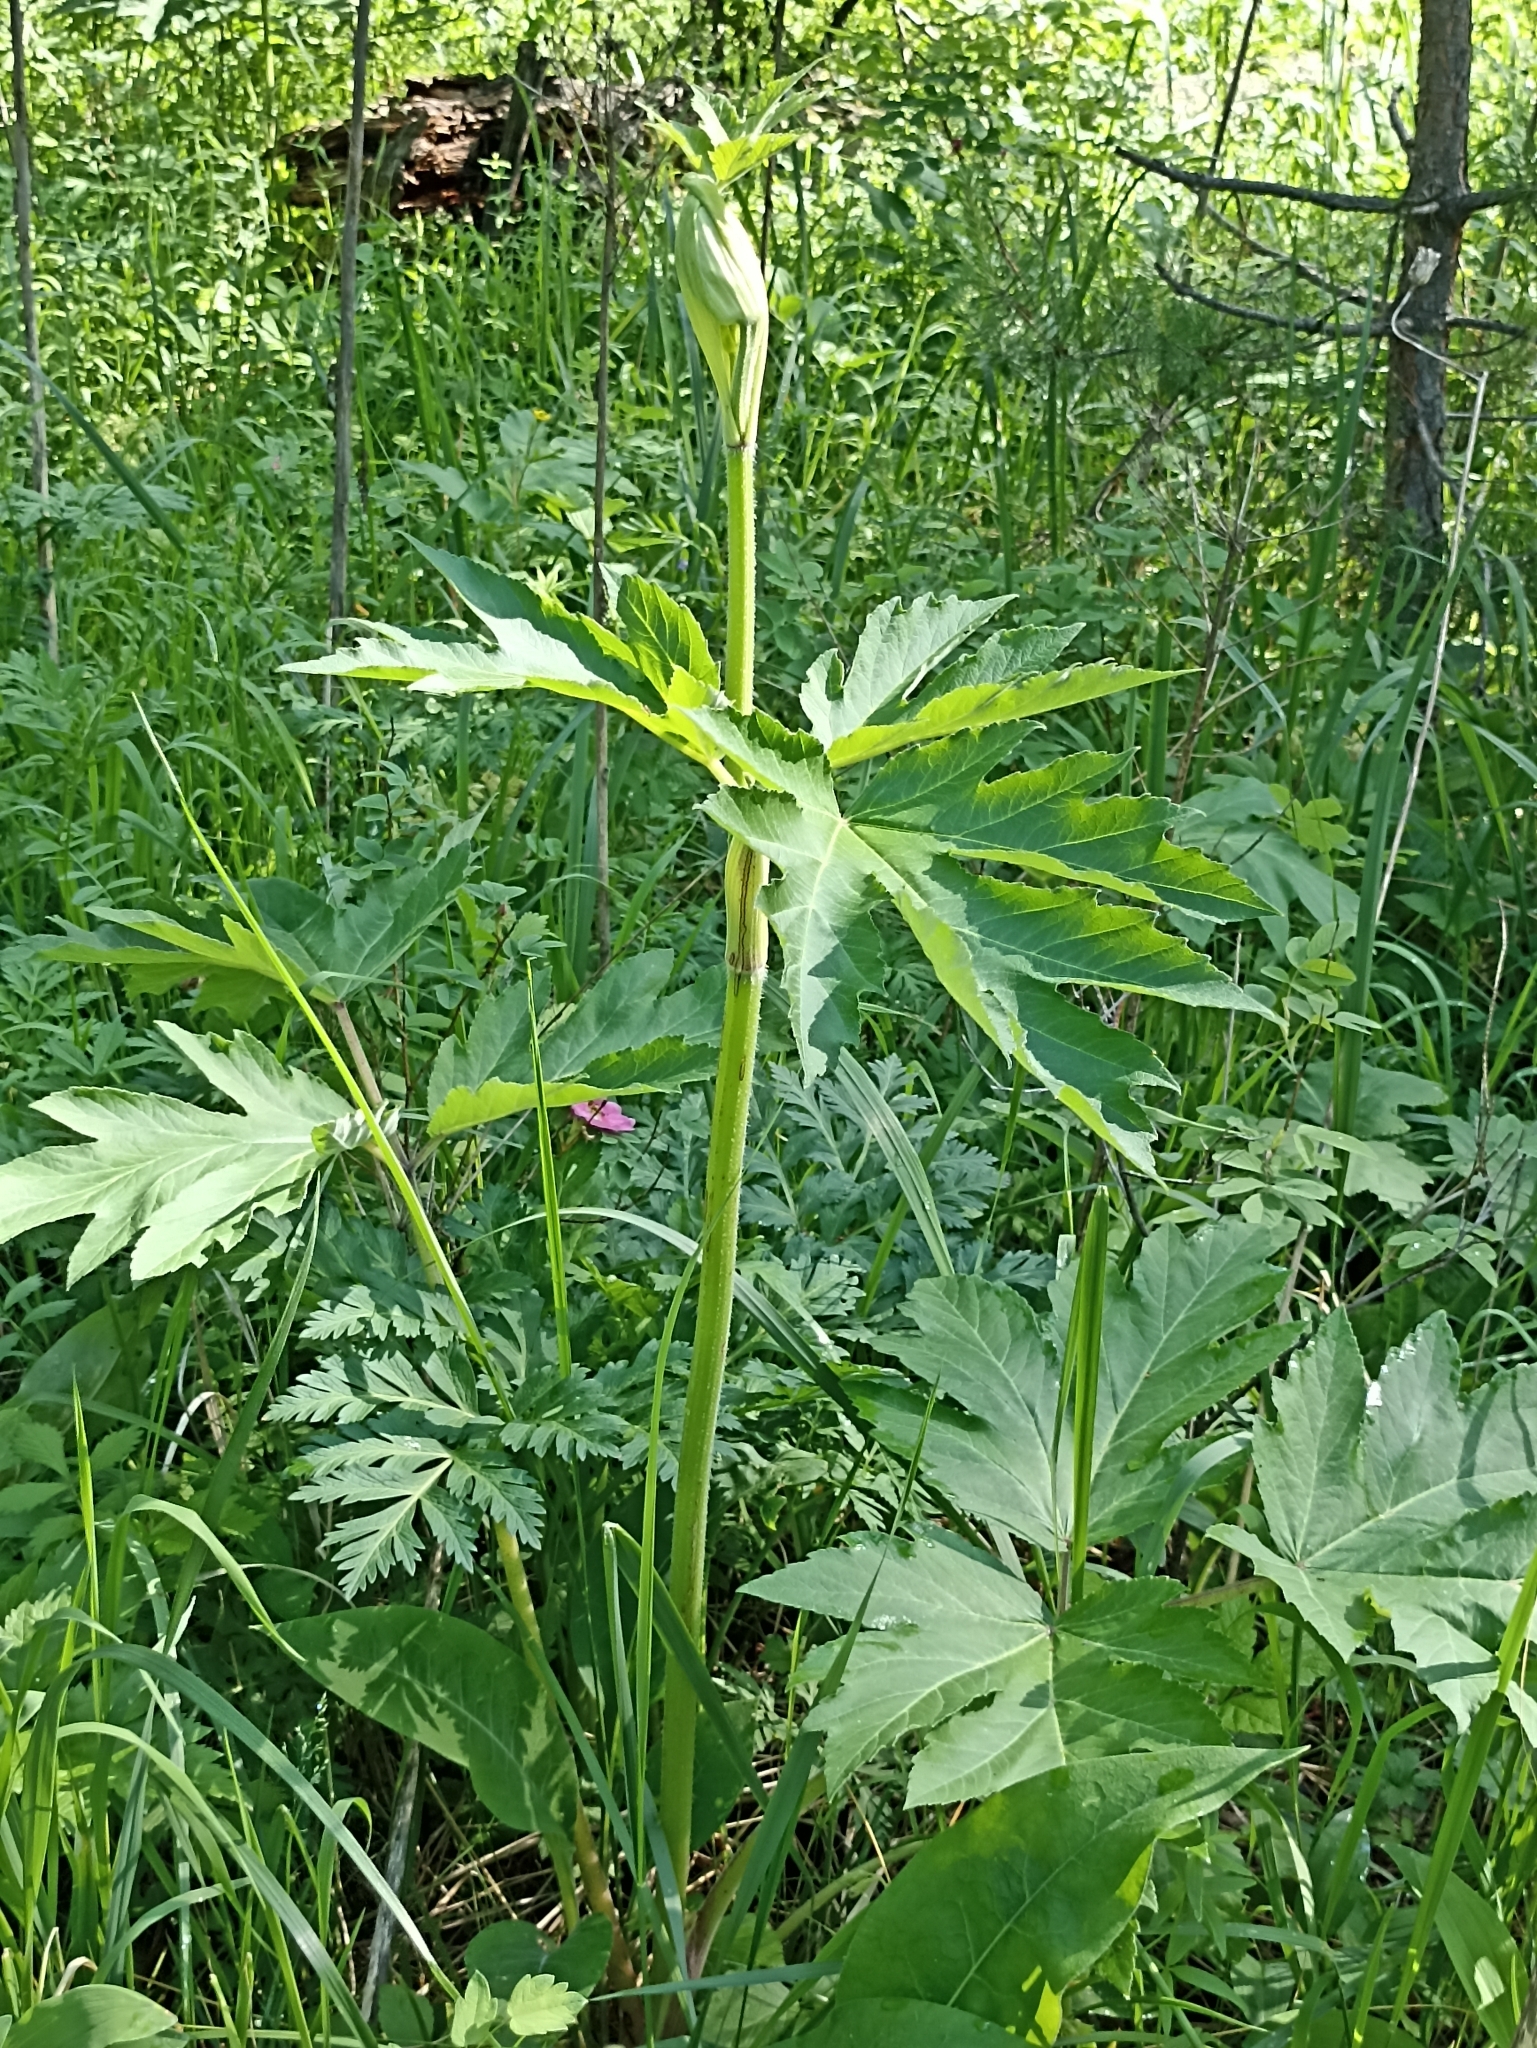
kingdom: Plantae
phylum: Tracheophyta
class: Magnoliopsida
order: Apiales
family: Apiaceae
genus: Heracleum
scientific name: Heracleum dissectum
